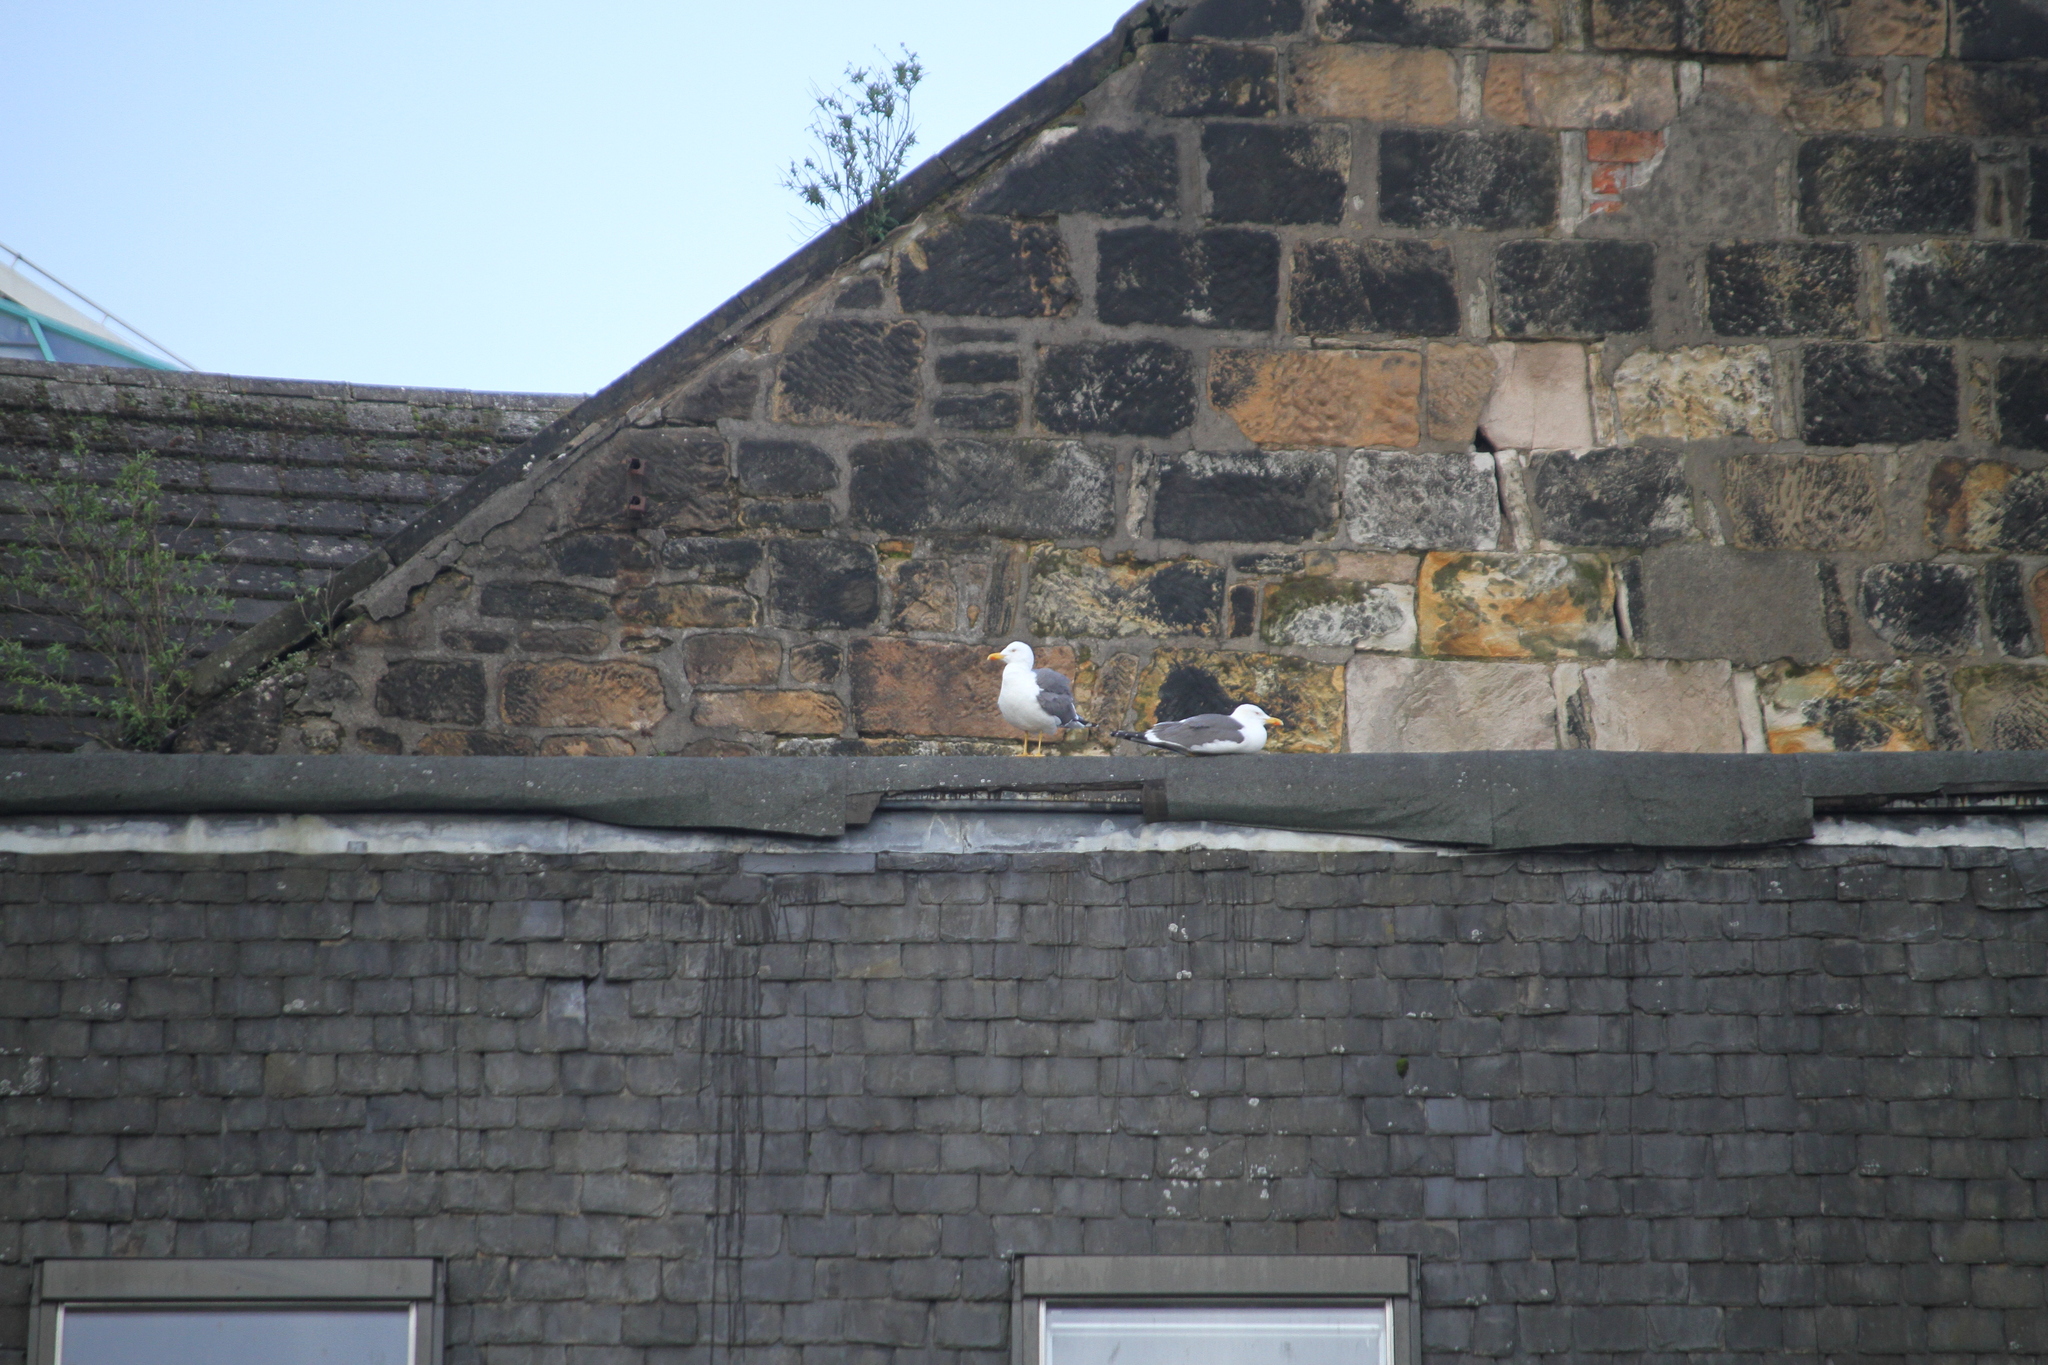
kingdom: Animalia
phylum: Chordata
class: Aves
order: Charadriiformes
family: Laridae
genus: Larus
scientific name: Larus fuscus
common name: Lesser black-backed gull
